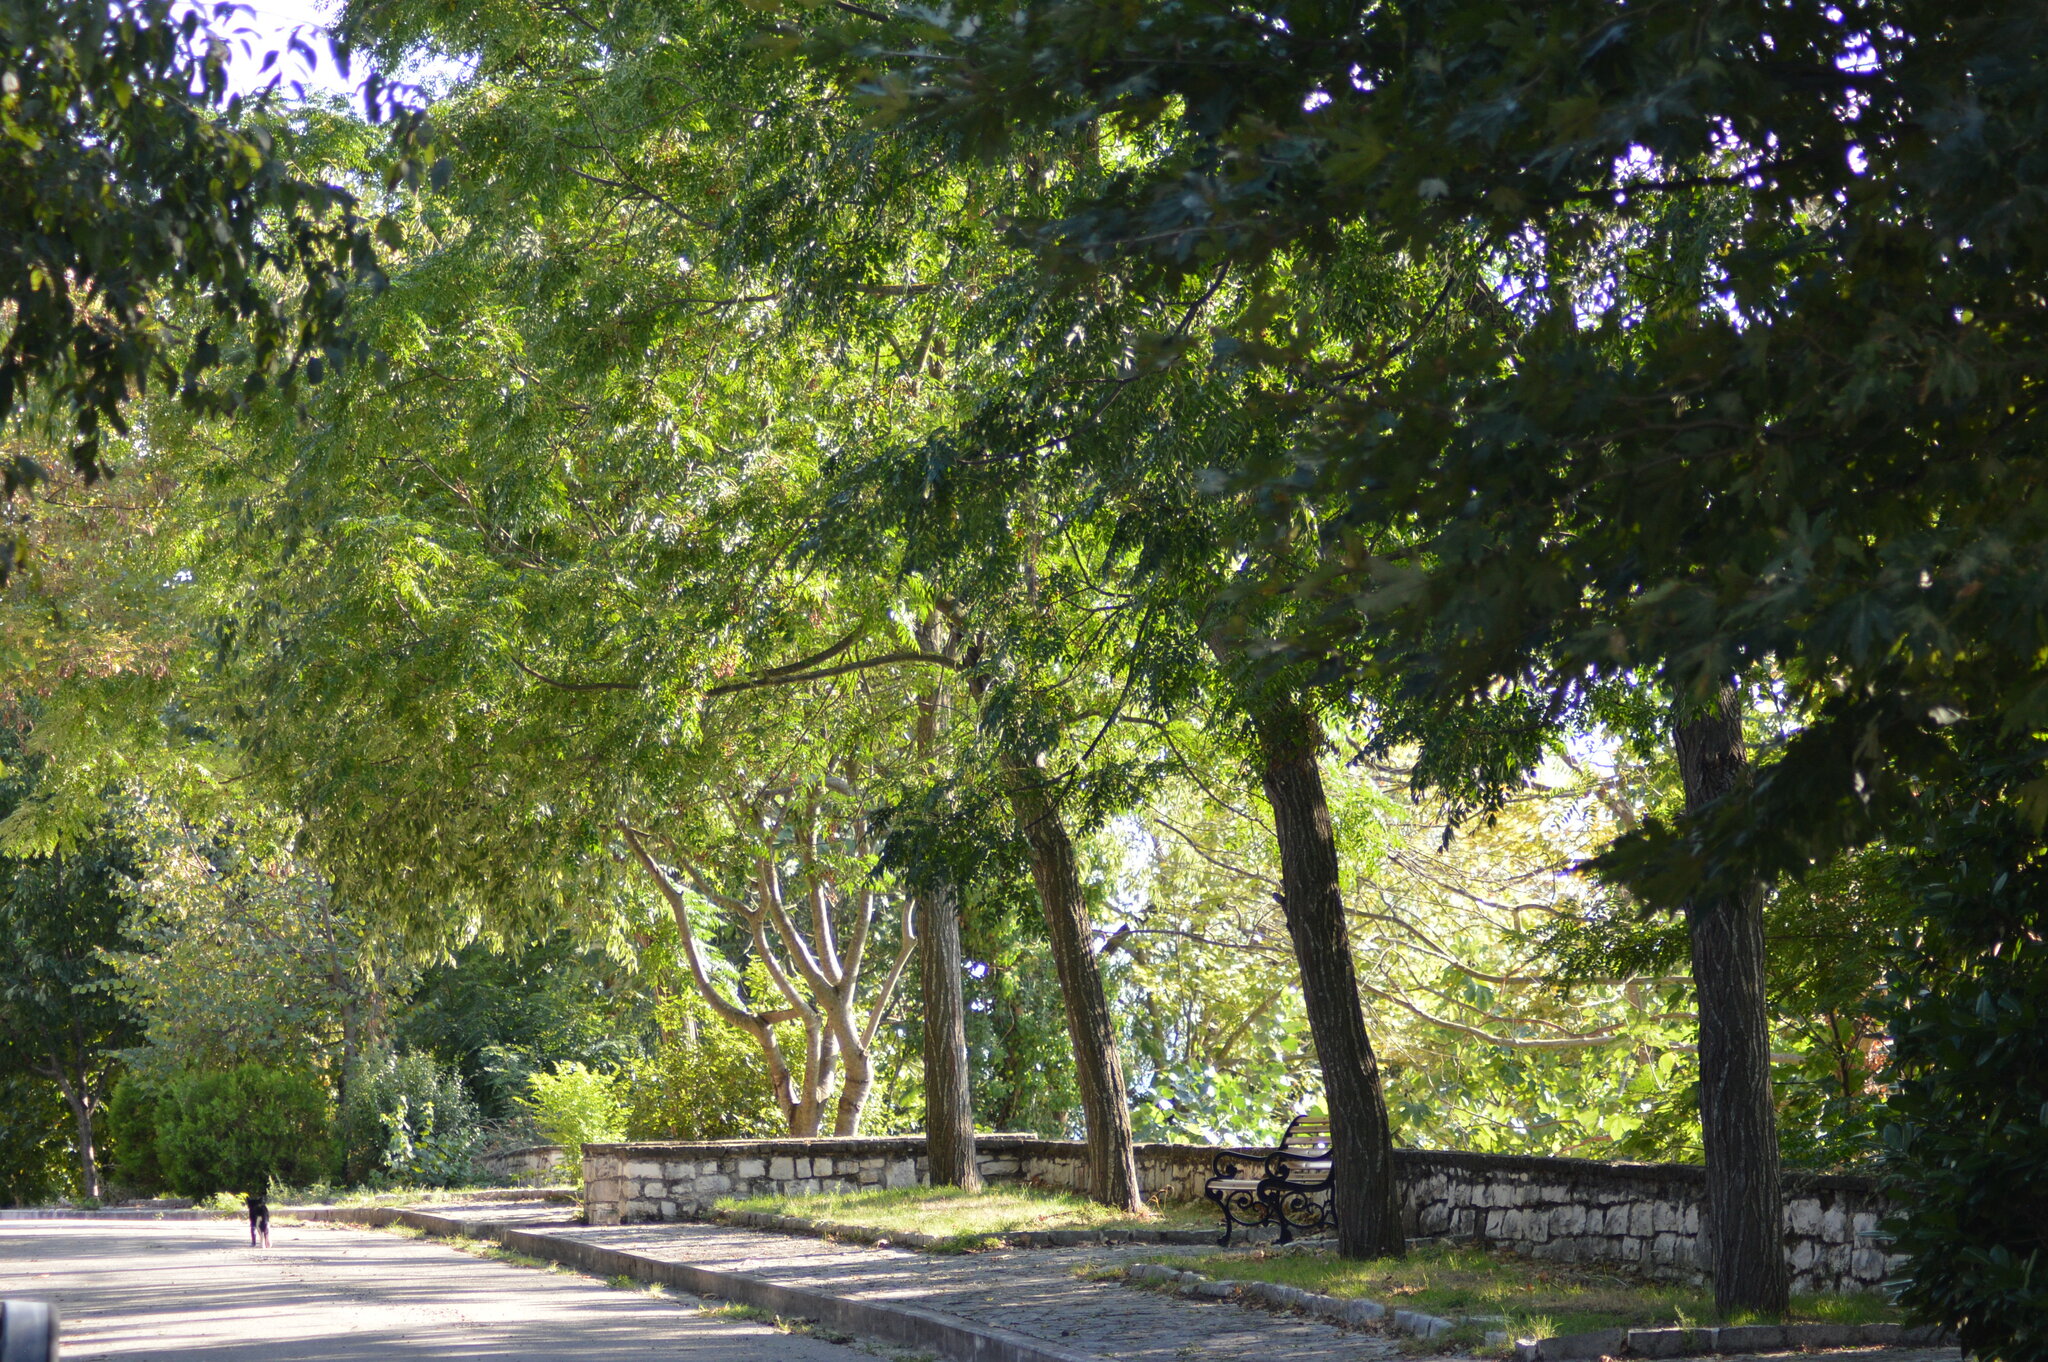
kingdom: Plantae
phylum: Tracheophyta
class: Magnoliopsida
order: Sapindales
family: Meliaceae
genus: Melia
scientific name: Melia azedarach
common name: Chinaberrytree
